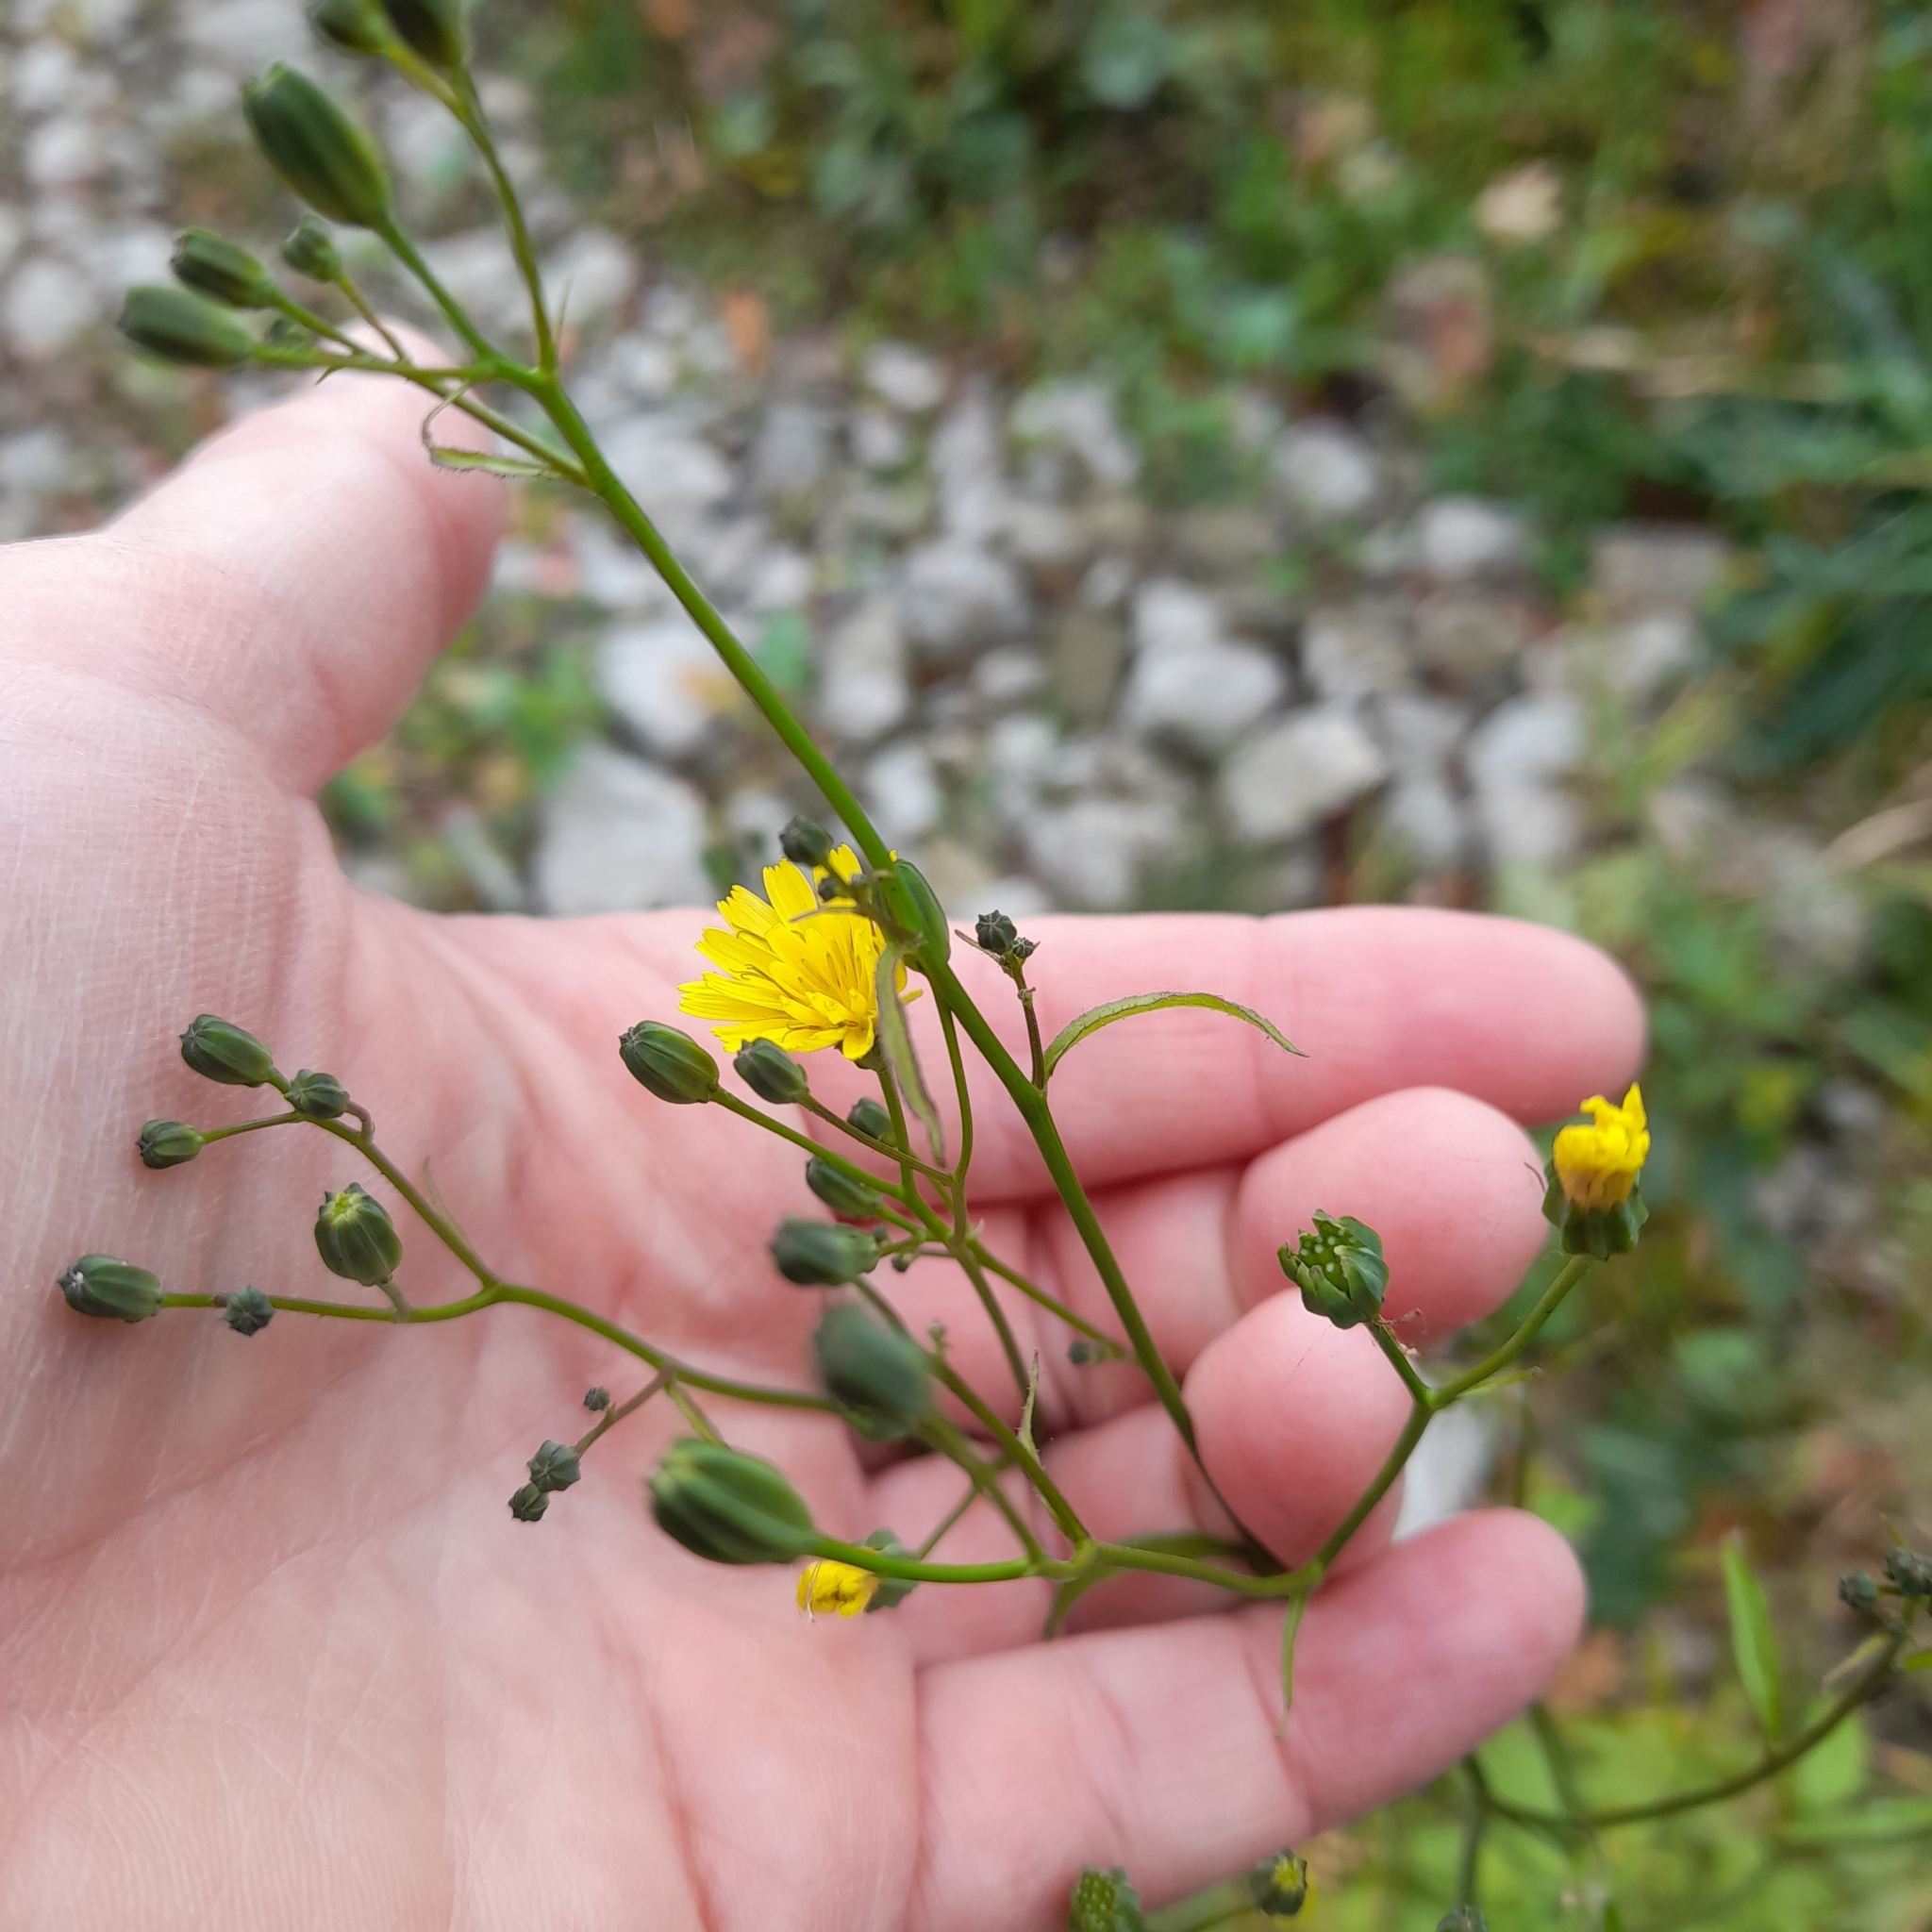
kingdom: Plantae
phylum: Tracheophyta
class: Magnoliopsida
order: Asterales
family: Asteraceae
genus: Lapsana
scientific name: Lapsana communis
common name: Nipplewort
